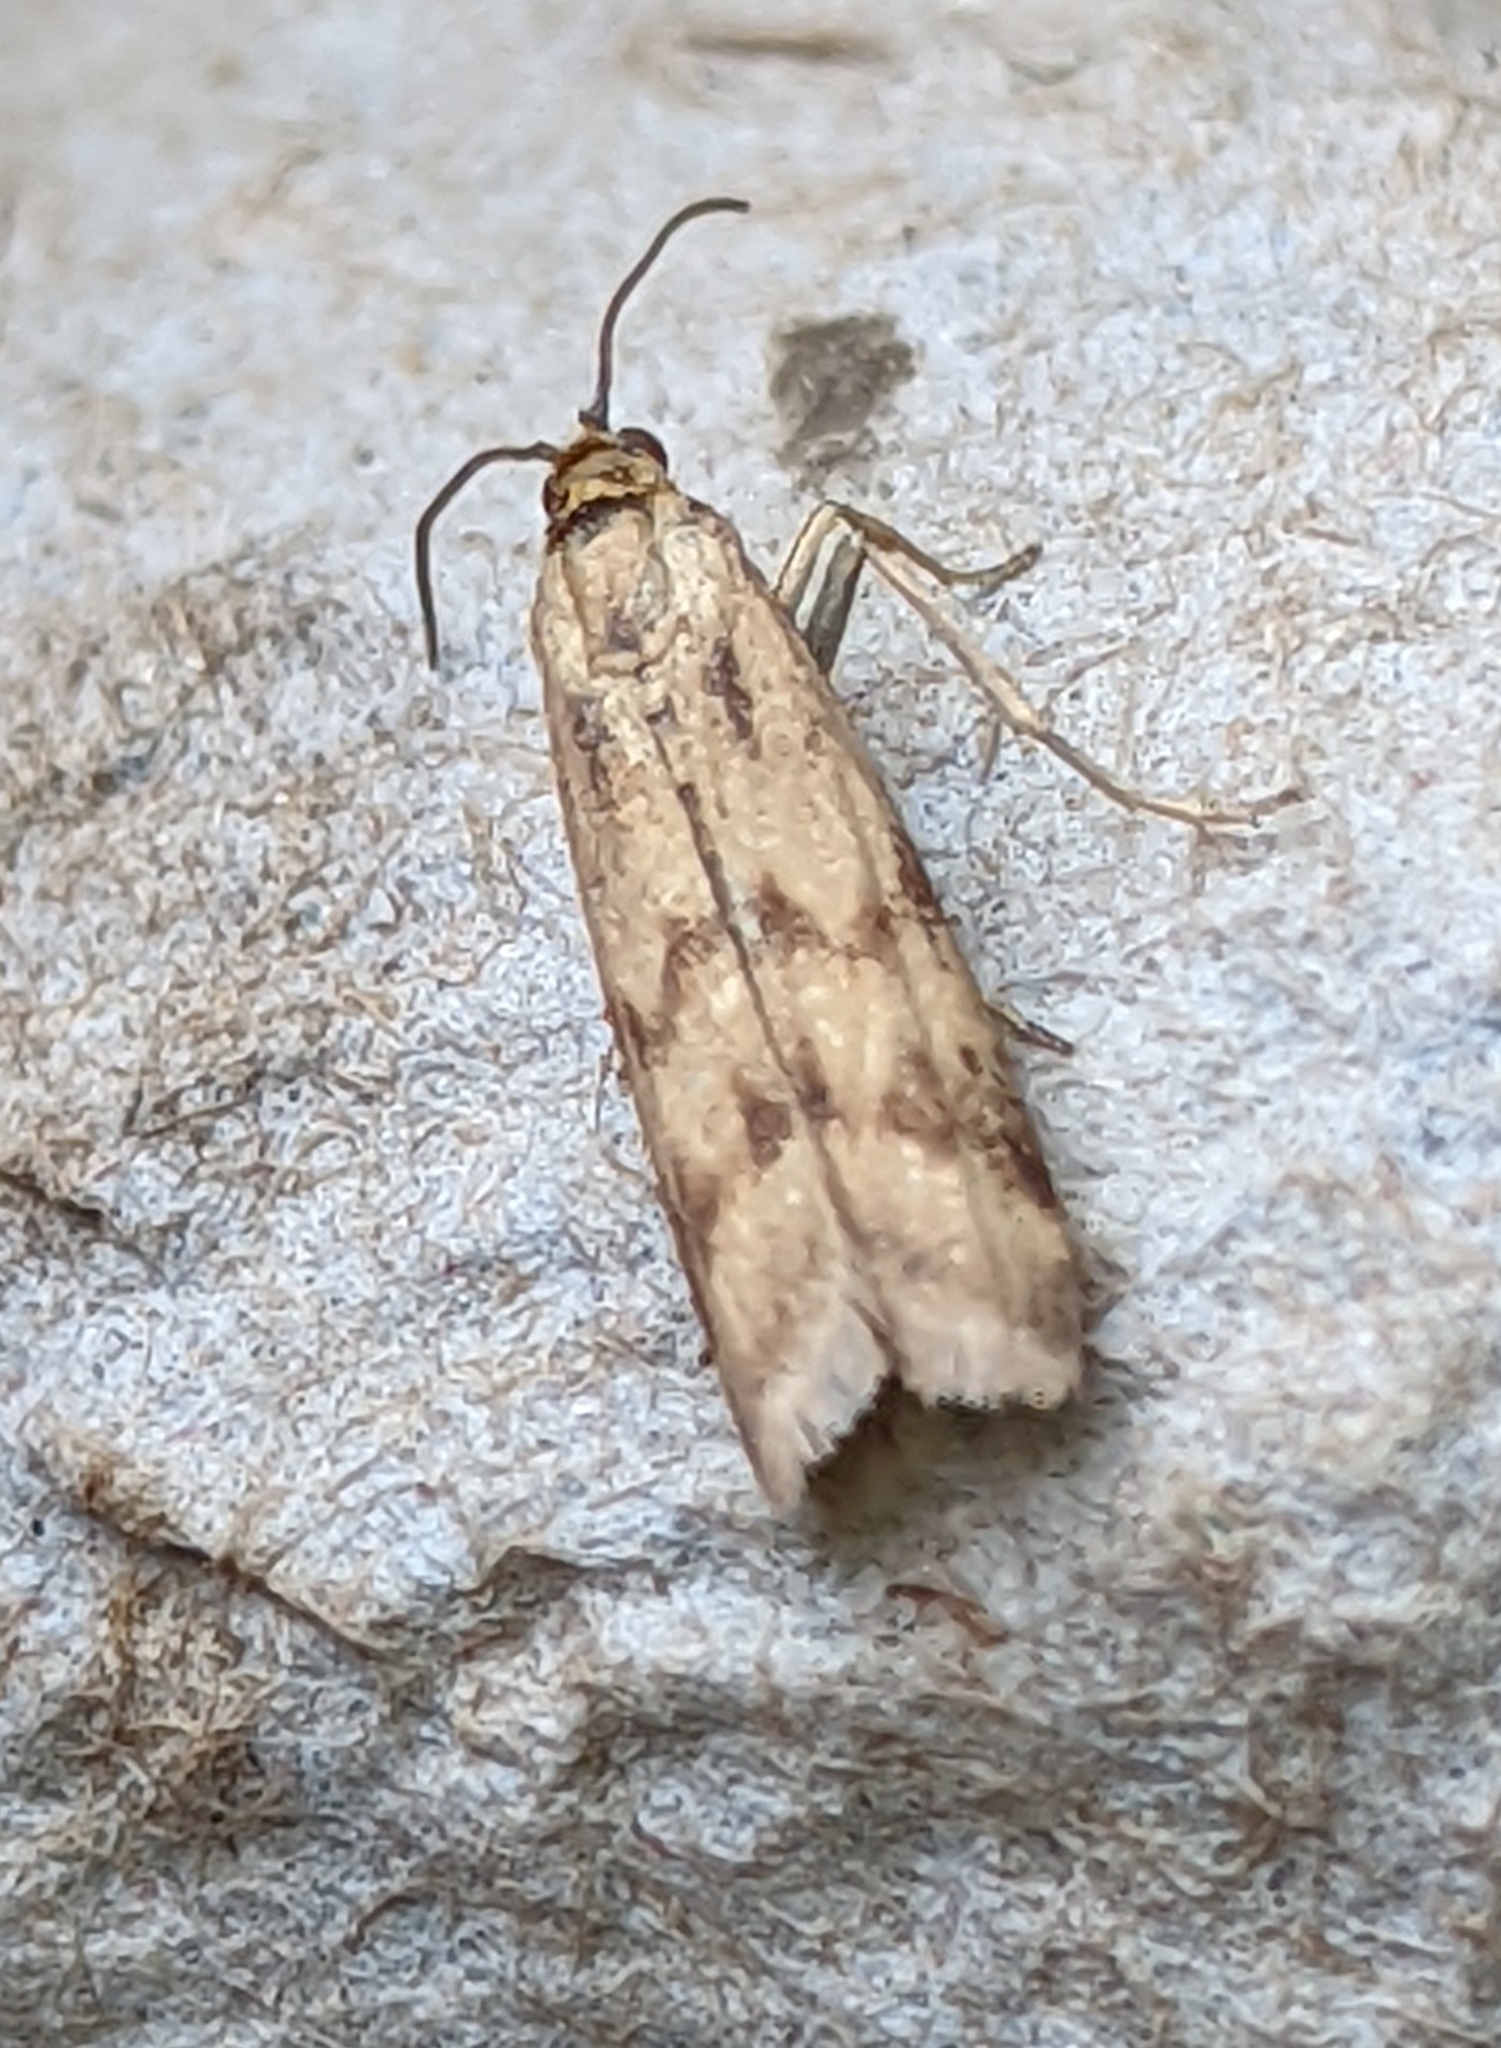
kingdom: Animalia
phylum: Arthropoda
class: Insecta
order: Lepidoptera
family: Pyralidae
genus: Homoeosoma
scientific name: Homoeosoma sinuella
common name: Twin-barred knot-horn
